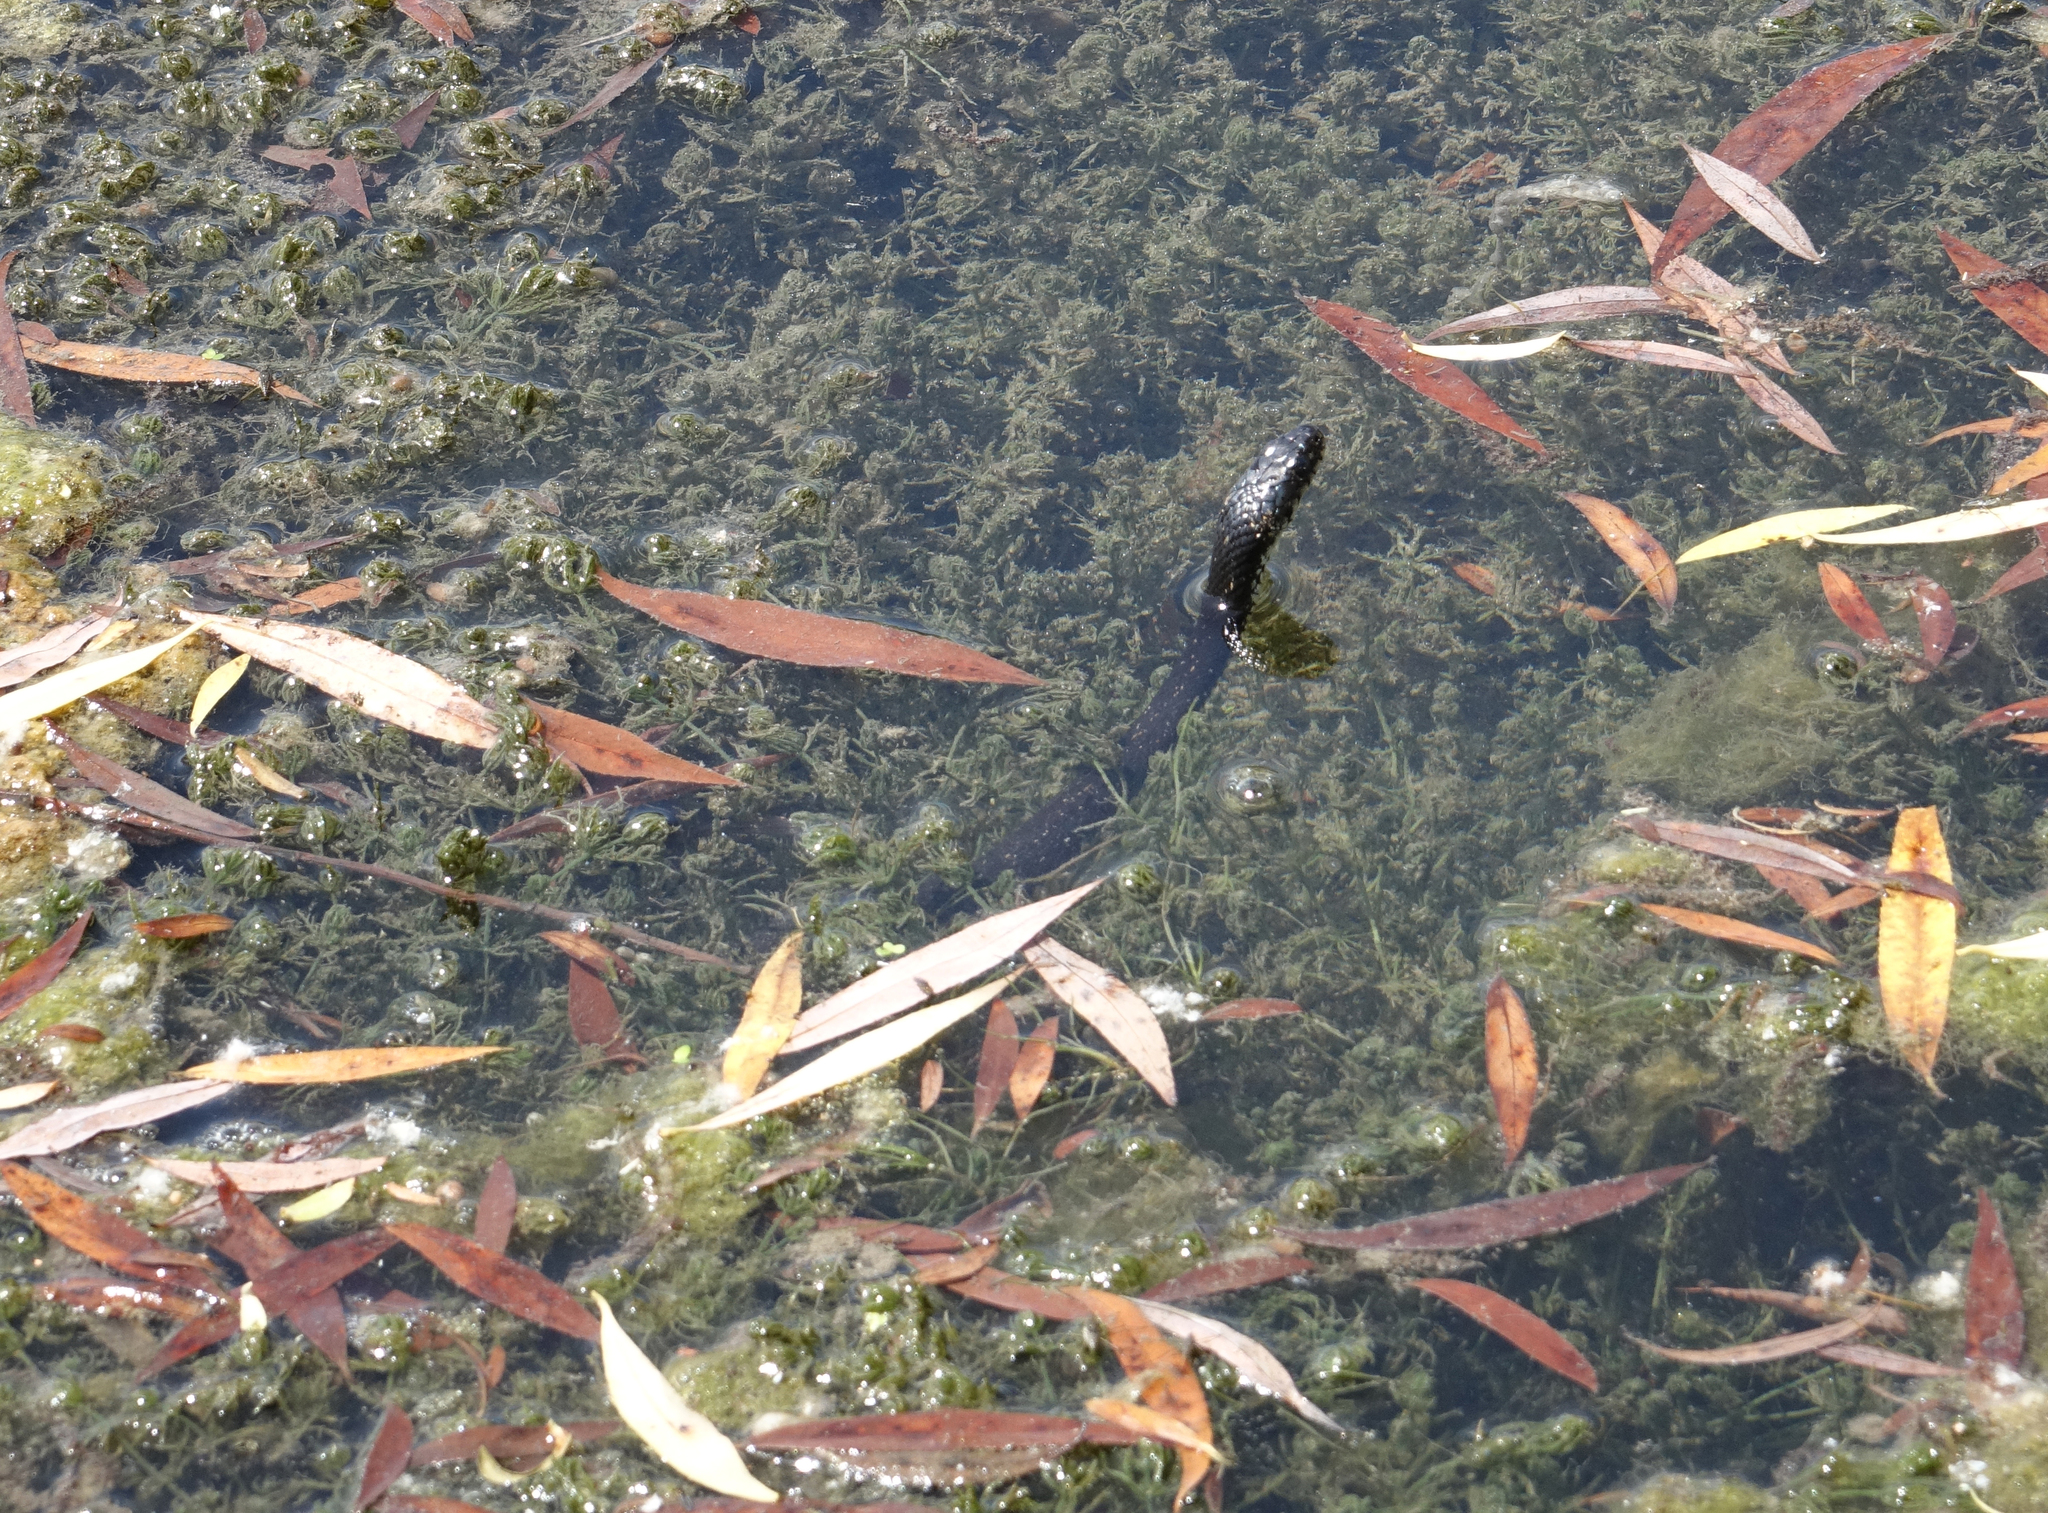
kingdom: Animalia
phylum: Chordata
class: Squamata
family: Colubridae
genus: Natrix
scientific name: Natrix natrix
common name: Grass snake
